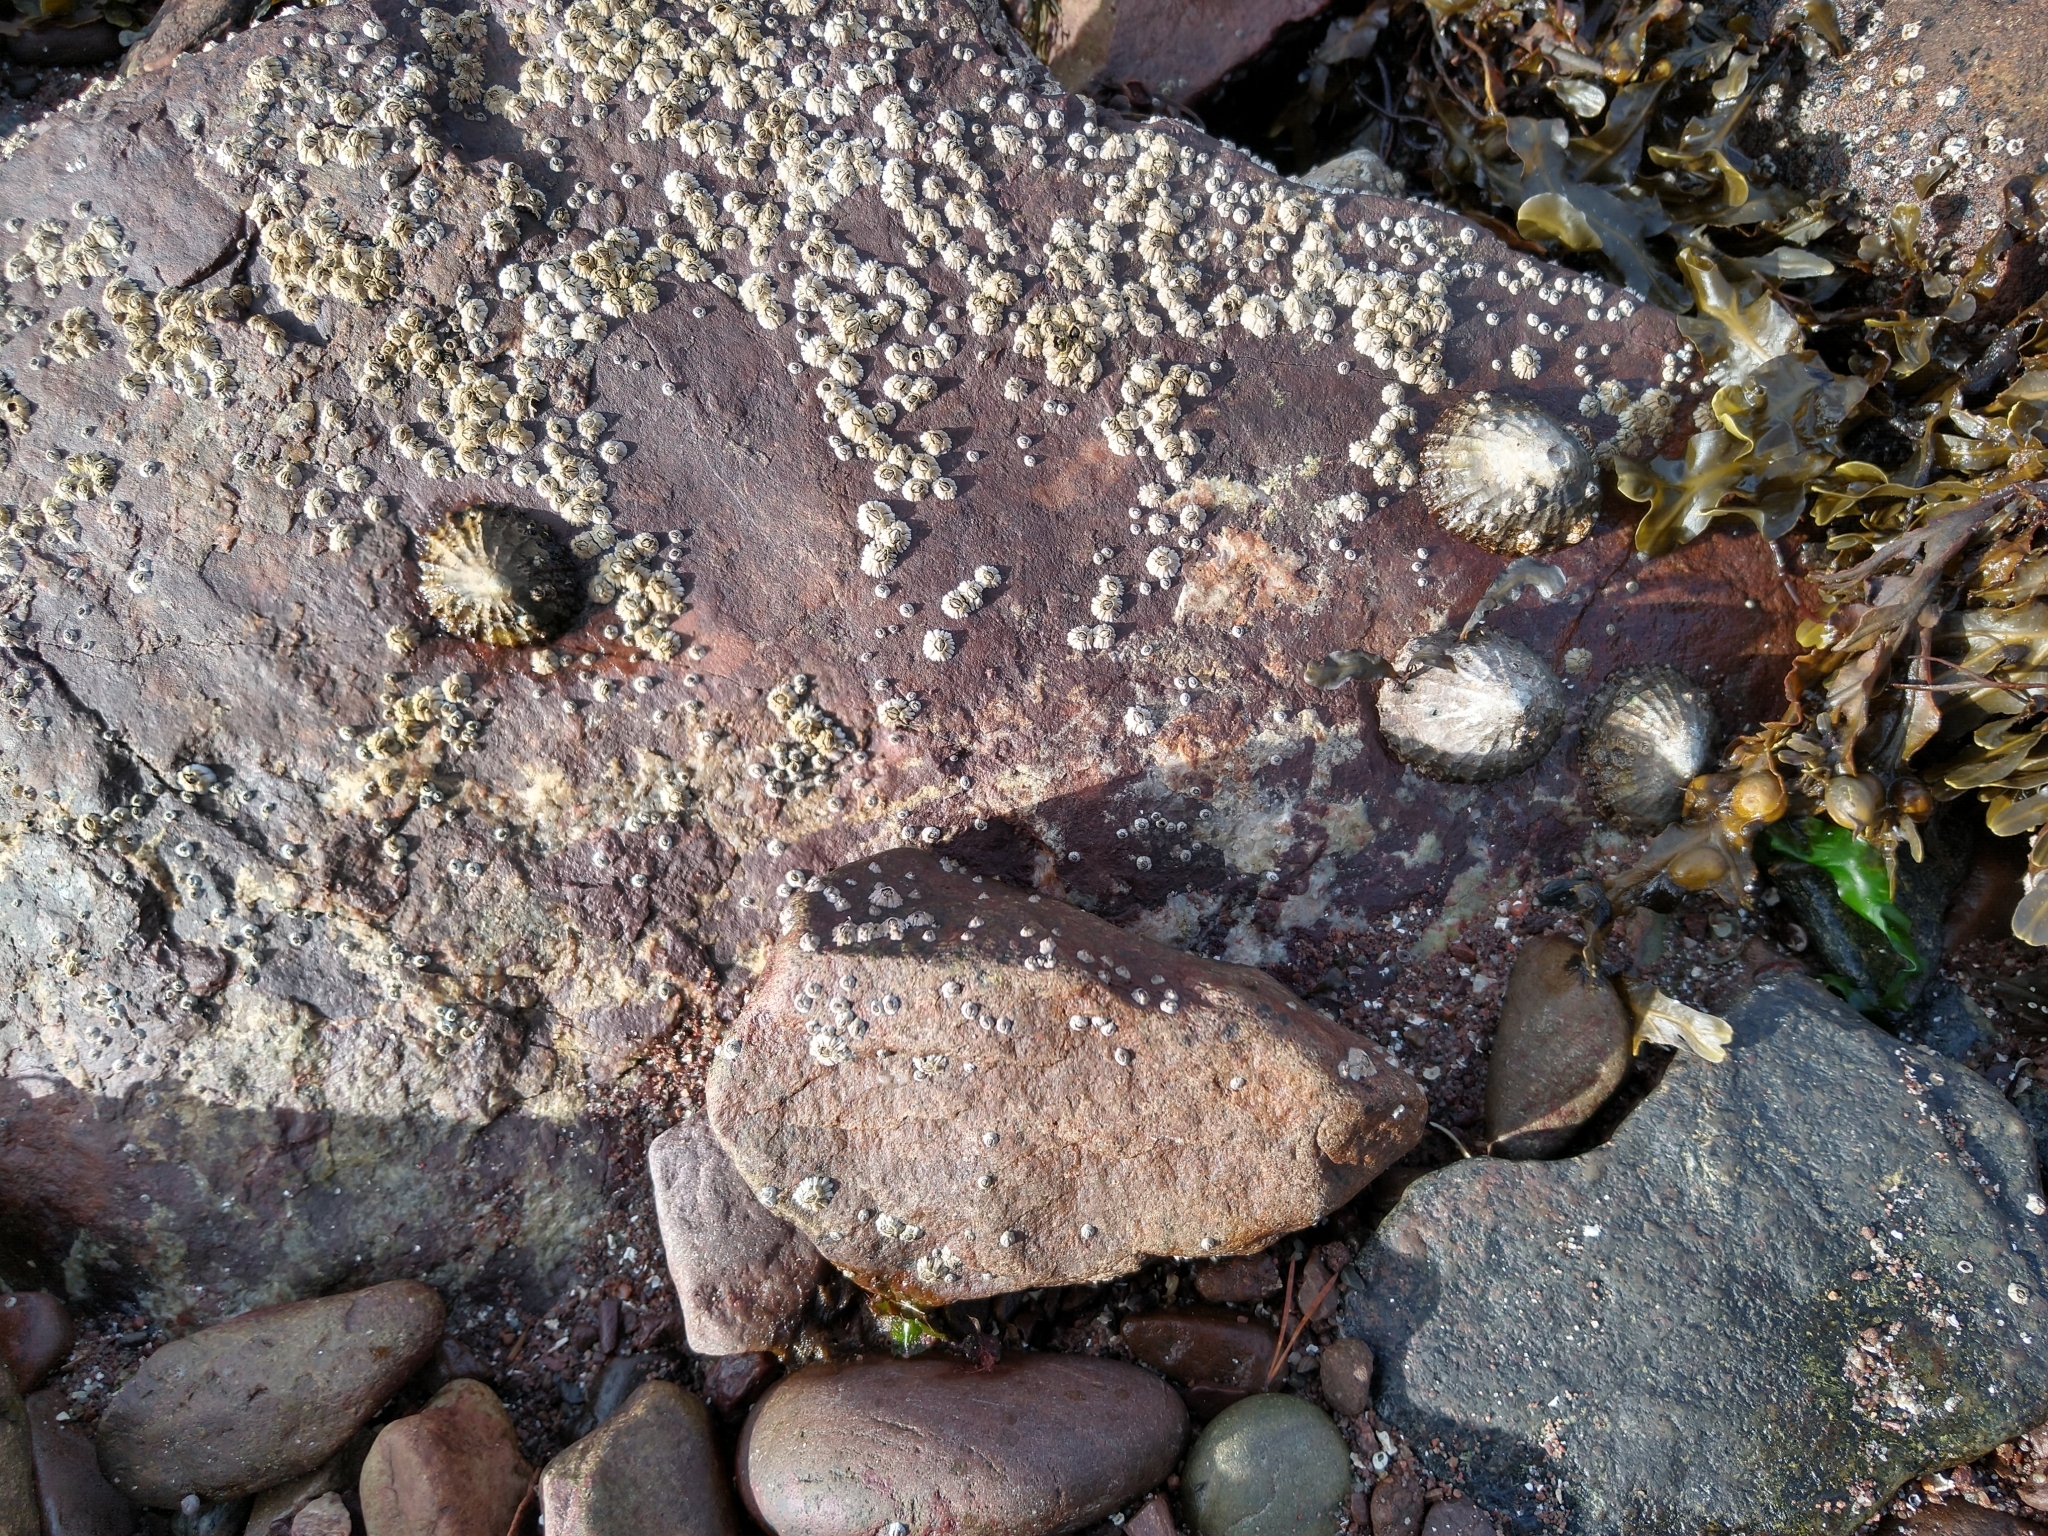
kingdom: Animalia
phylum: Mollusca
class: Gastropoda
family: Patellidae
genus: Patella
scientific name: Patella vulgata
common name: Common limpet
